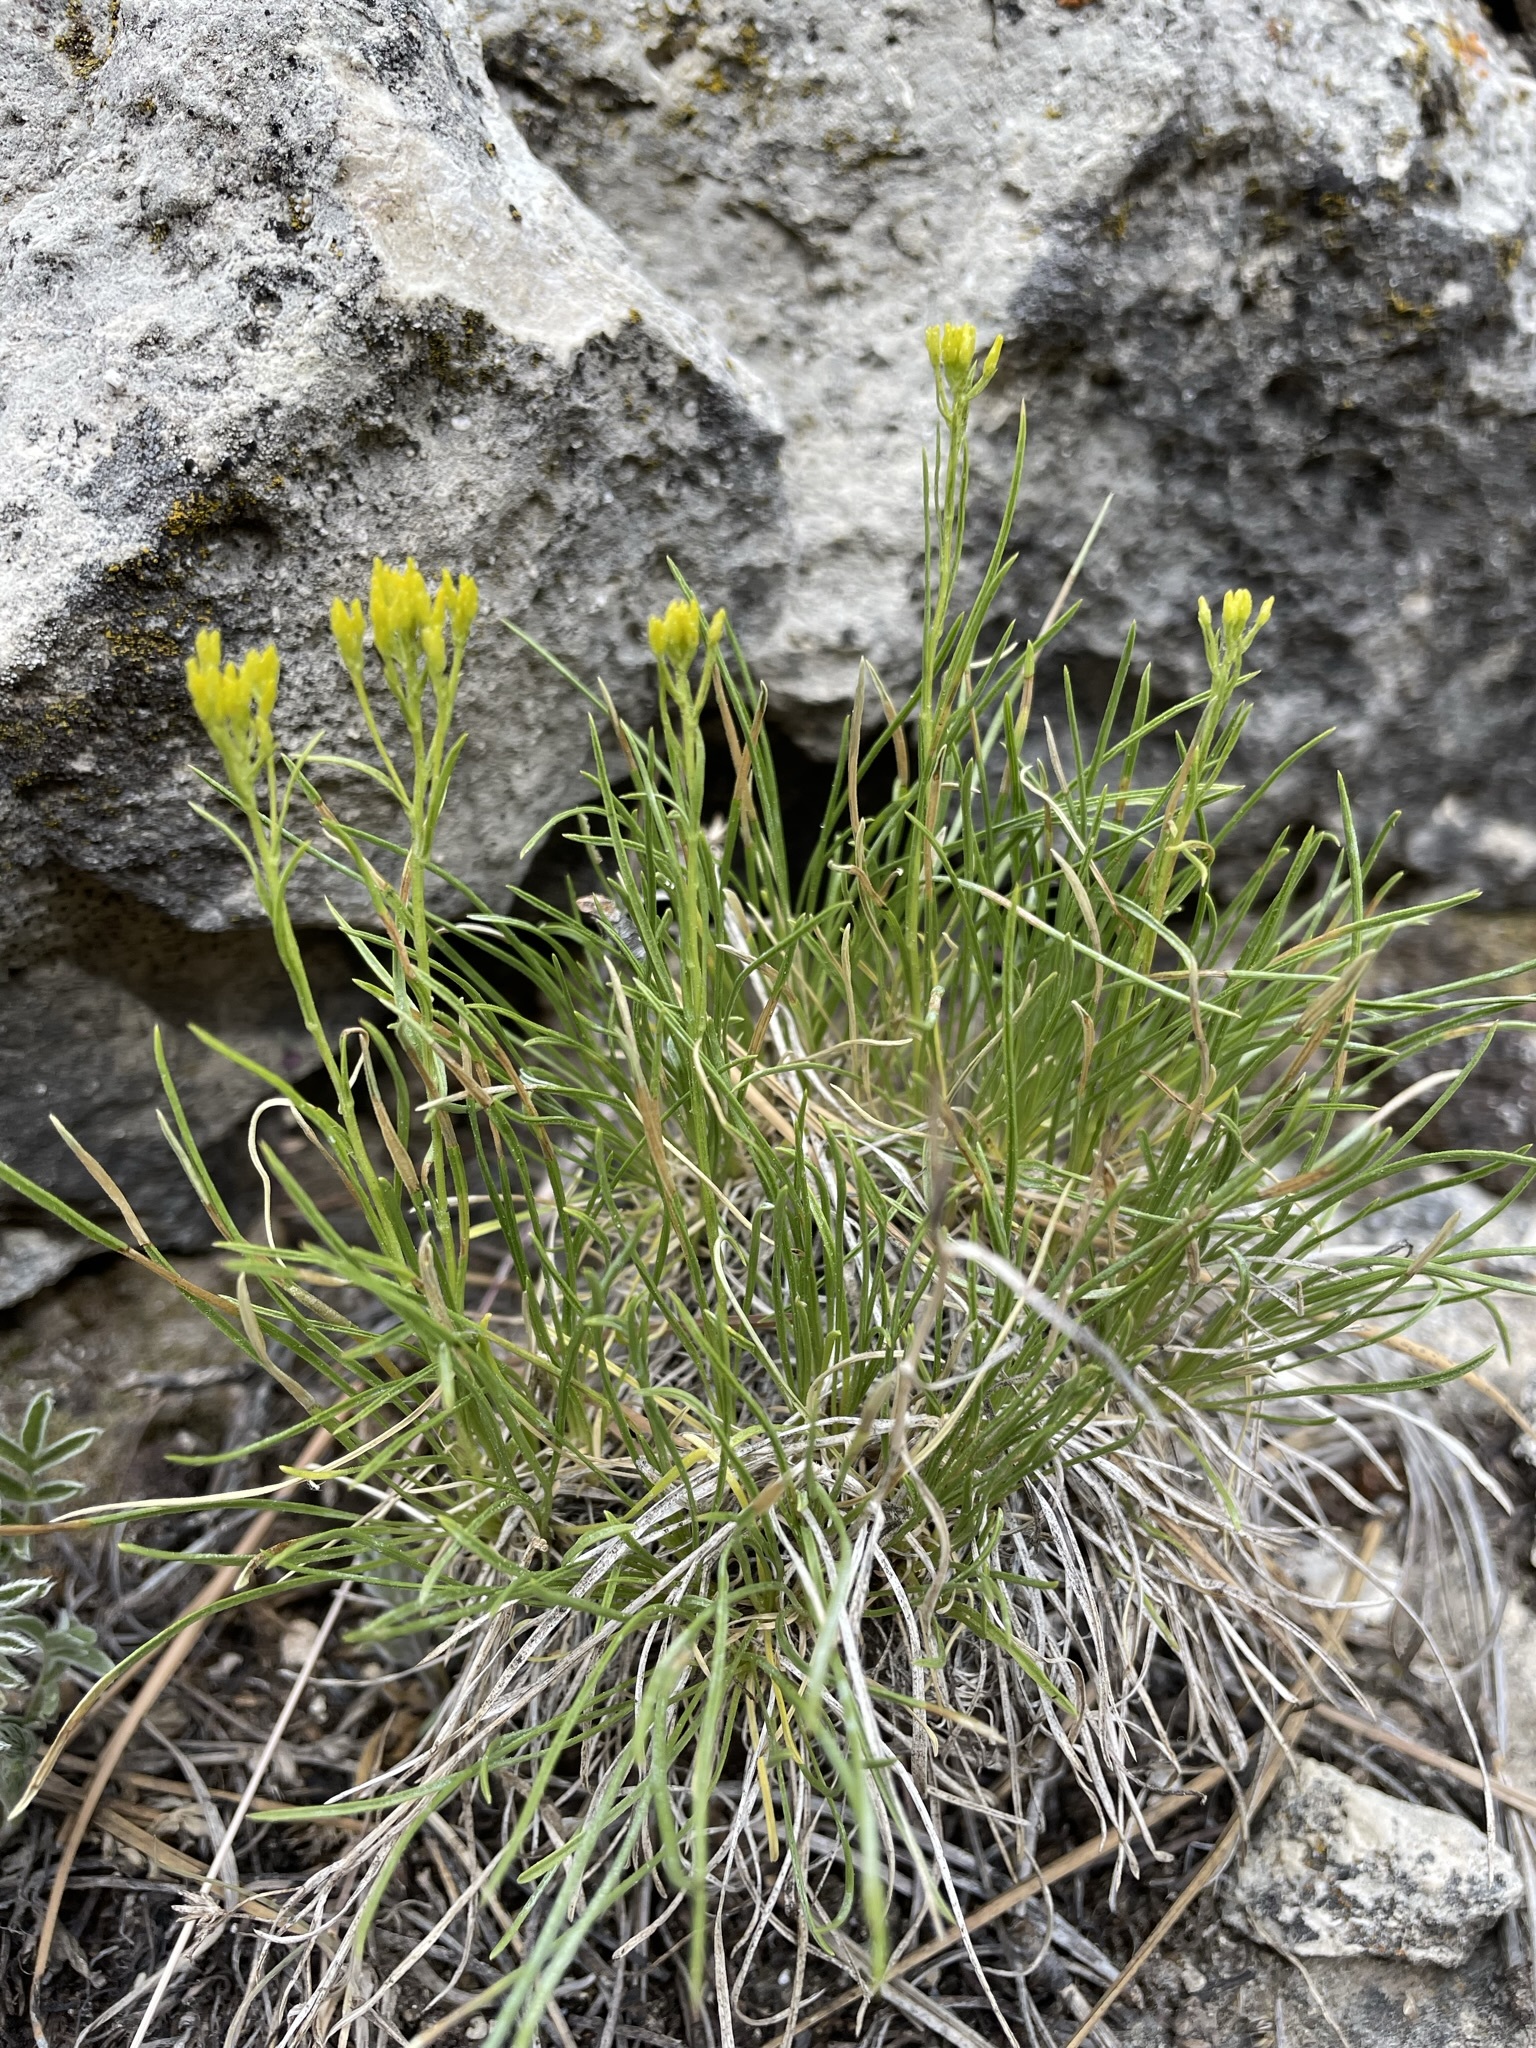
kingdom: Plantae
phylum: Tracheophyta
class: Magnoliopsida
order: Asterales
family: Asteraceae
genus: Petradoria
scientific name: Petradoria pumila
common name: Rock-goldenrod
